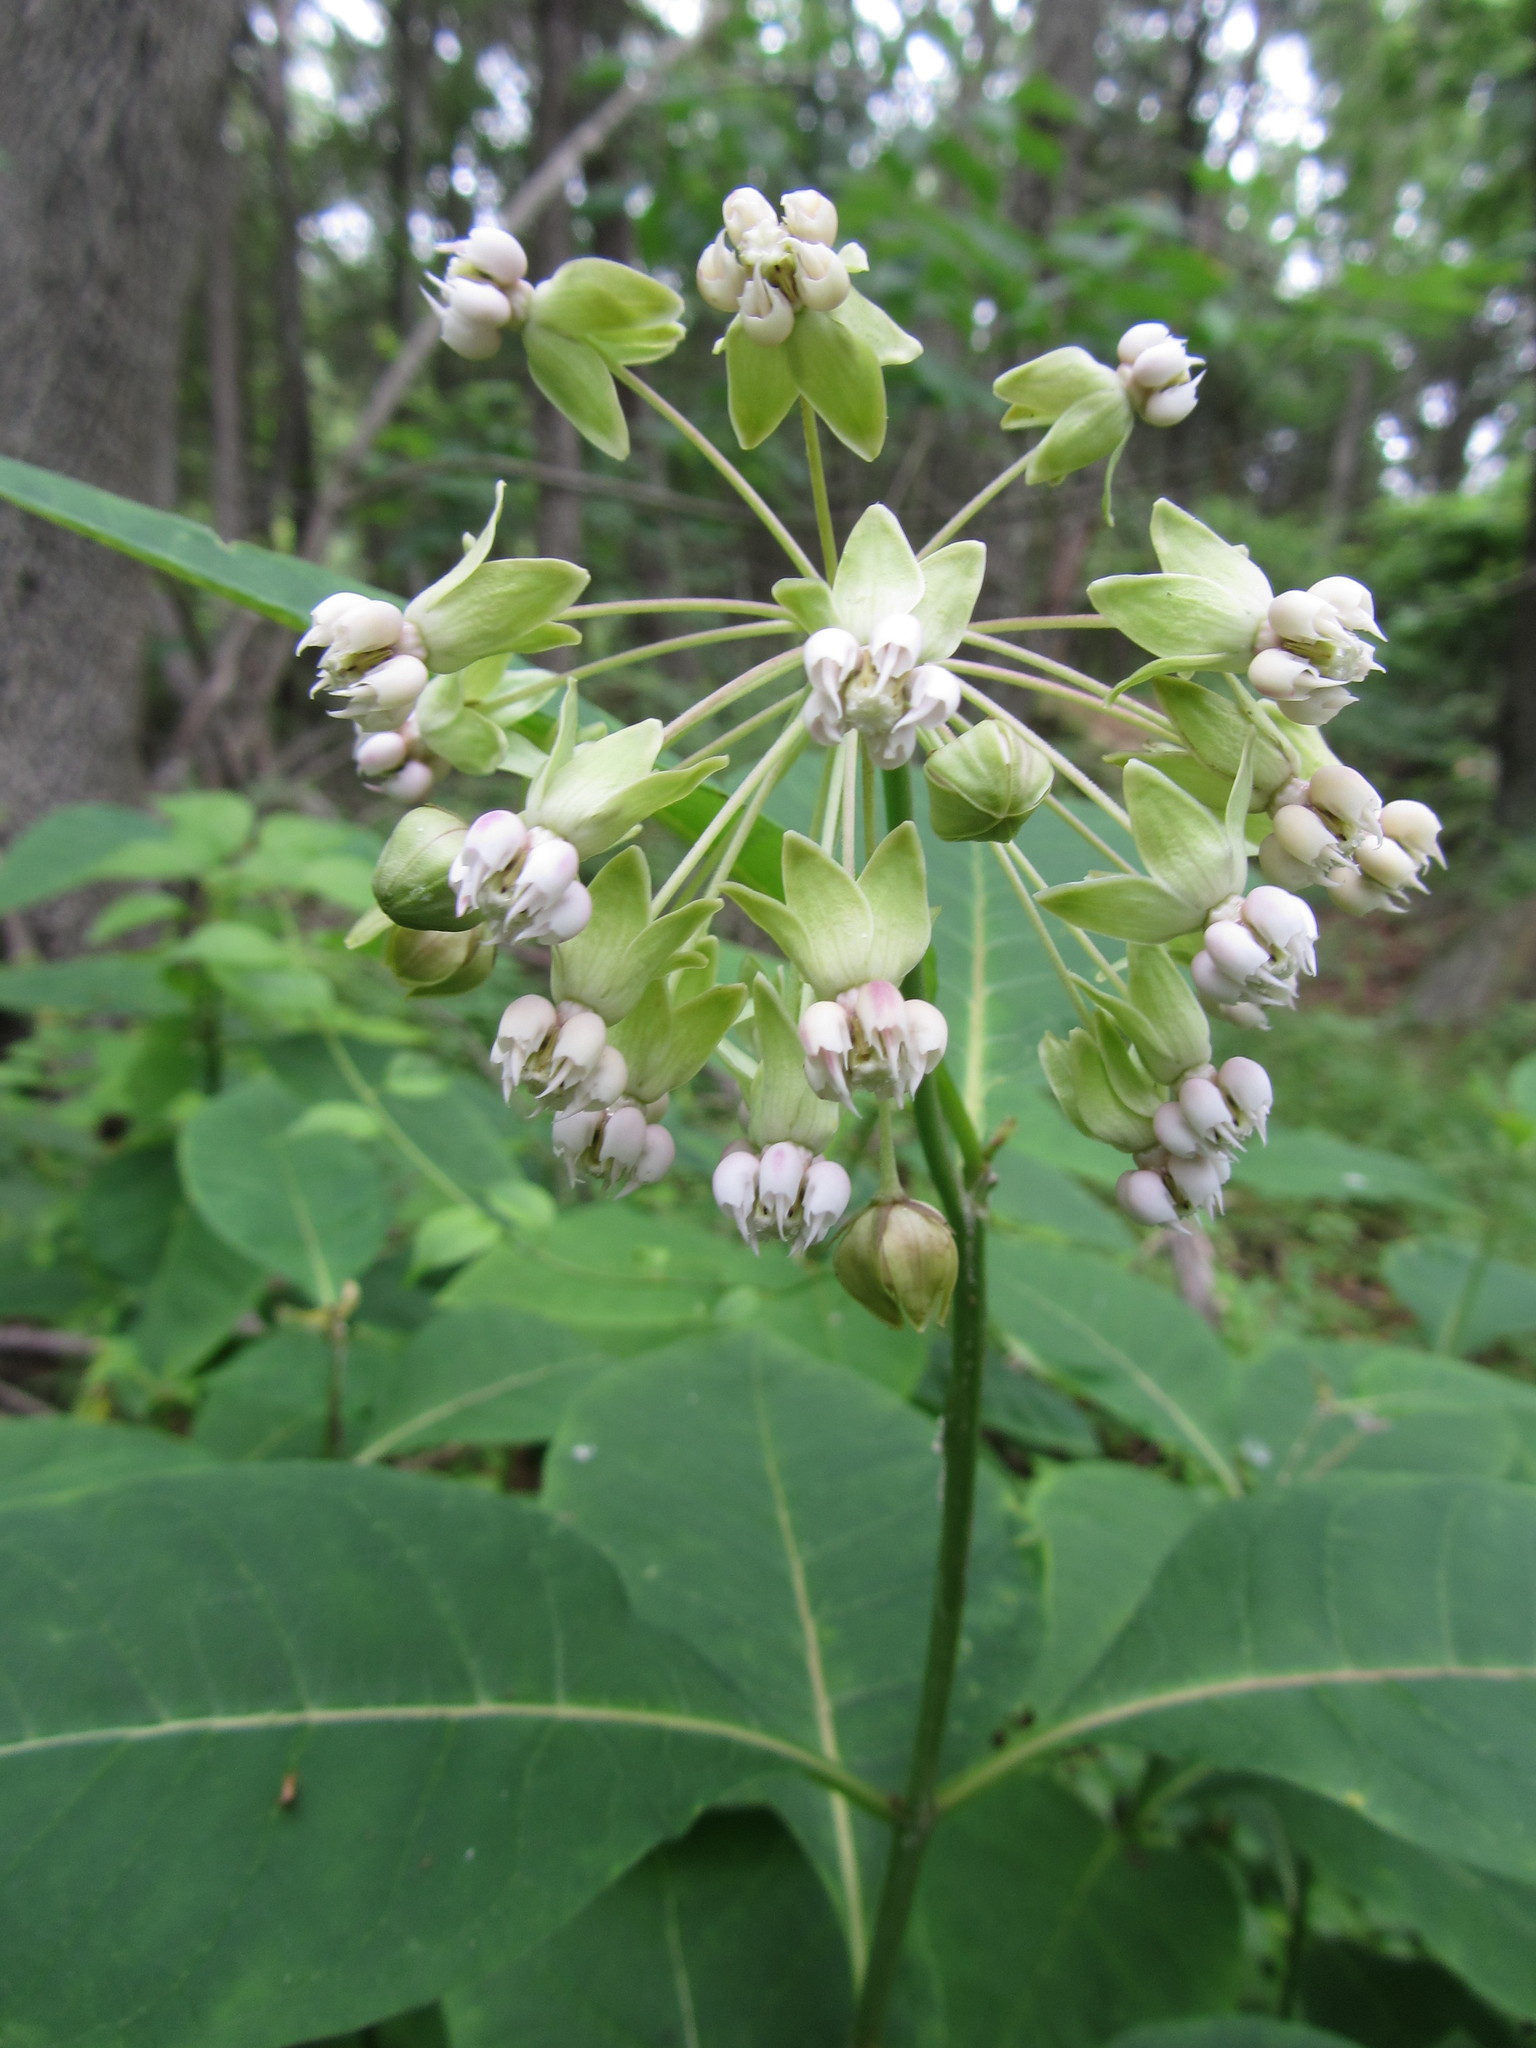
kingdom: Plantae
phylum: Tracheophyta
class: Magnoliopsida
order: Gentianales
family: Apocynaceae
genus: Asclepias
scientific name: Asclepias exaltata
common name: Poke milkweed
